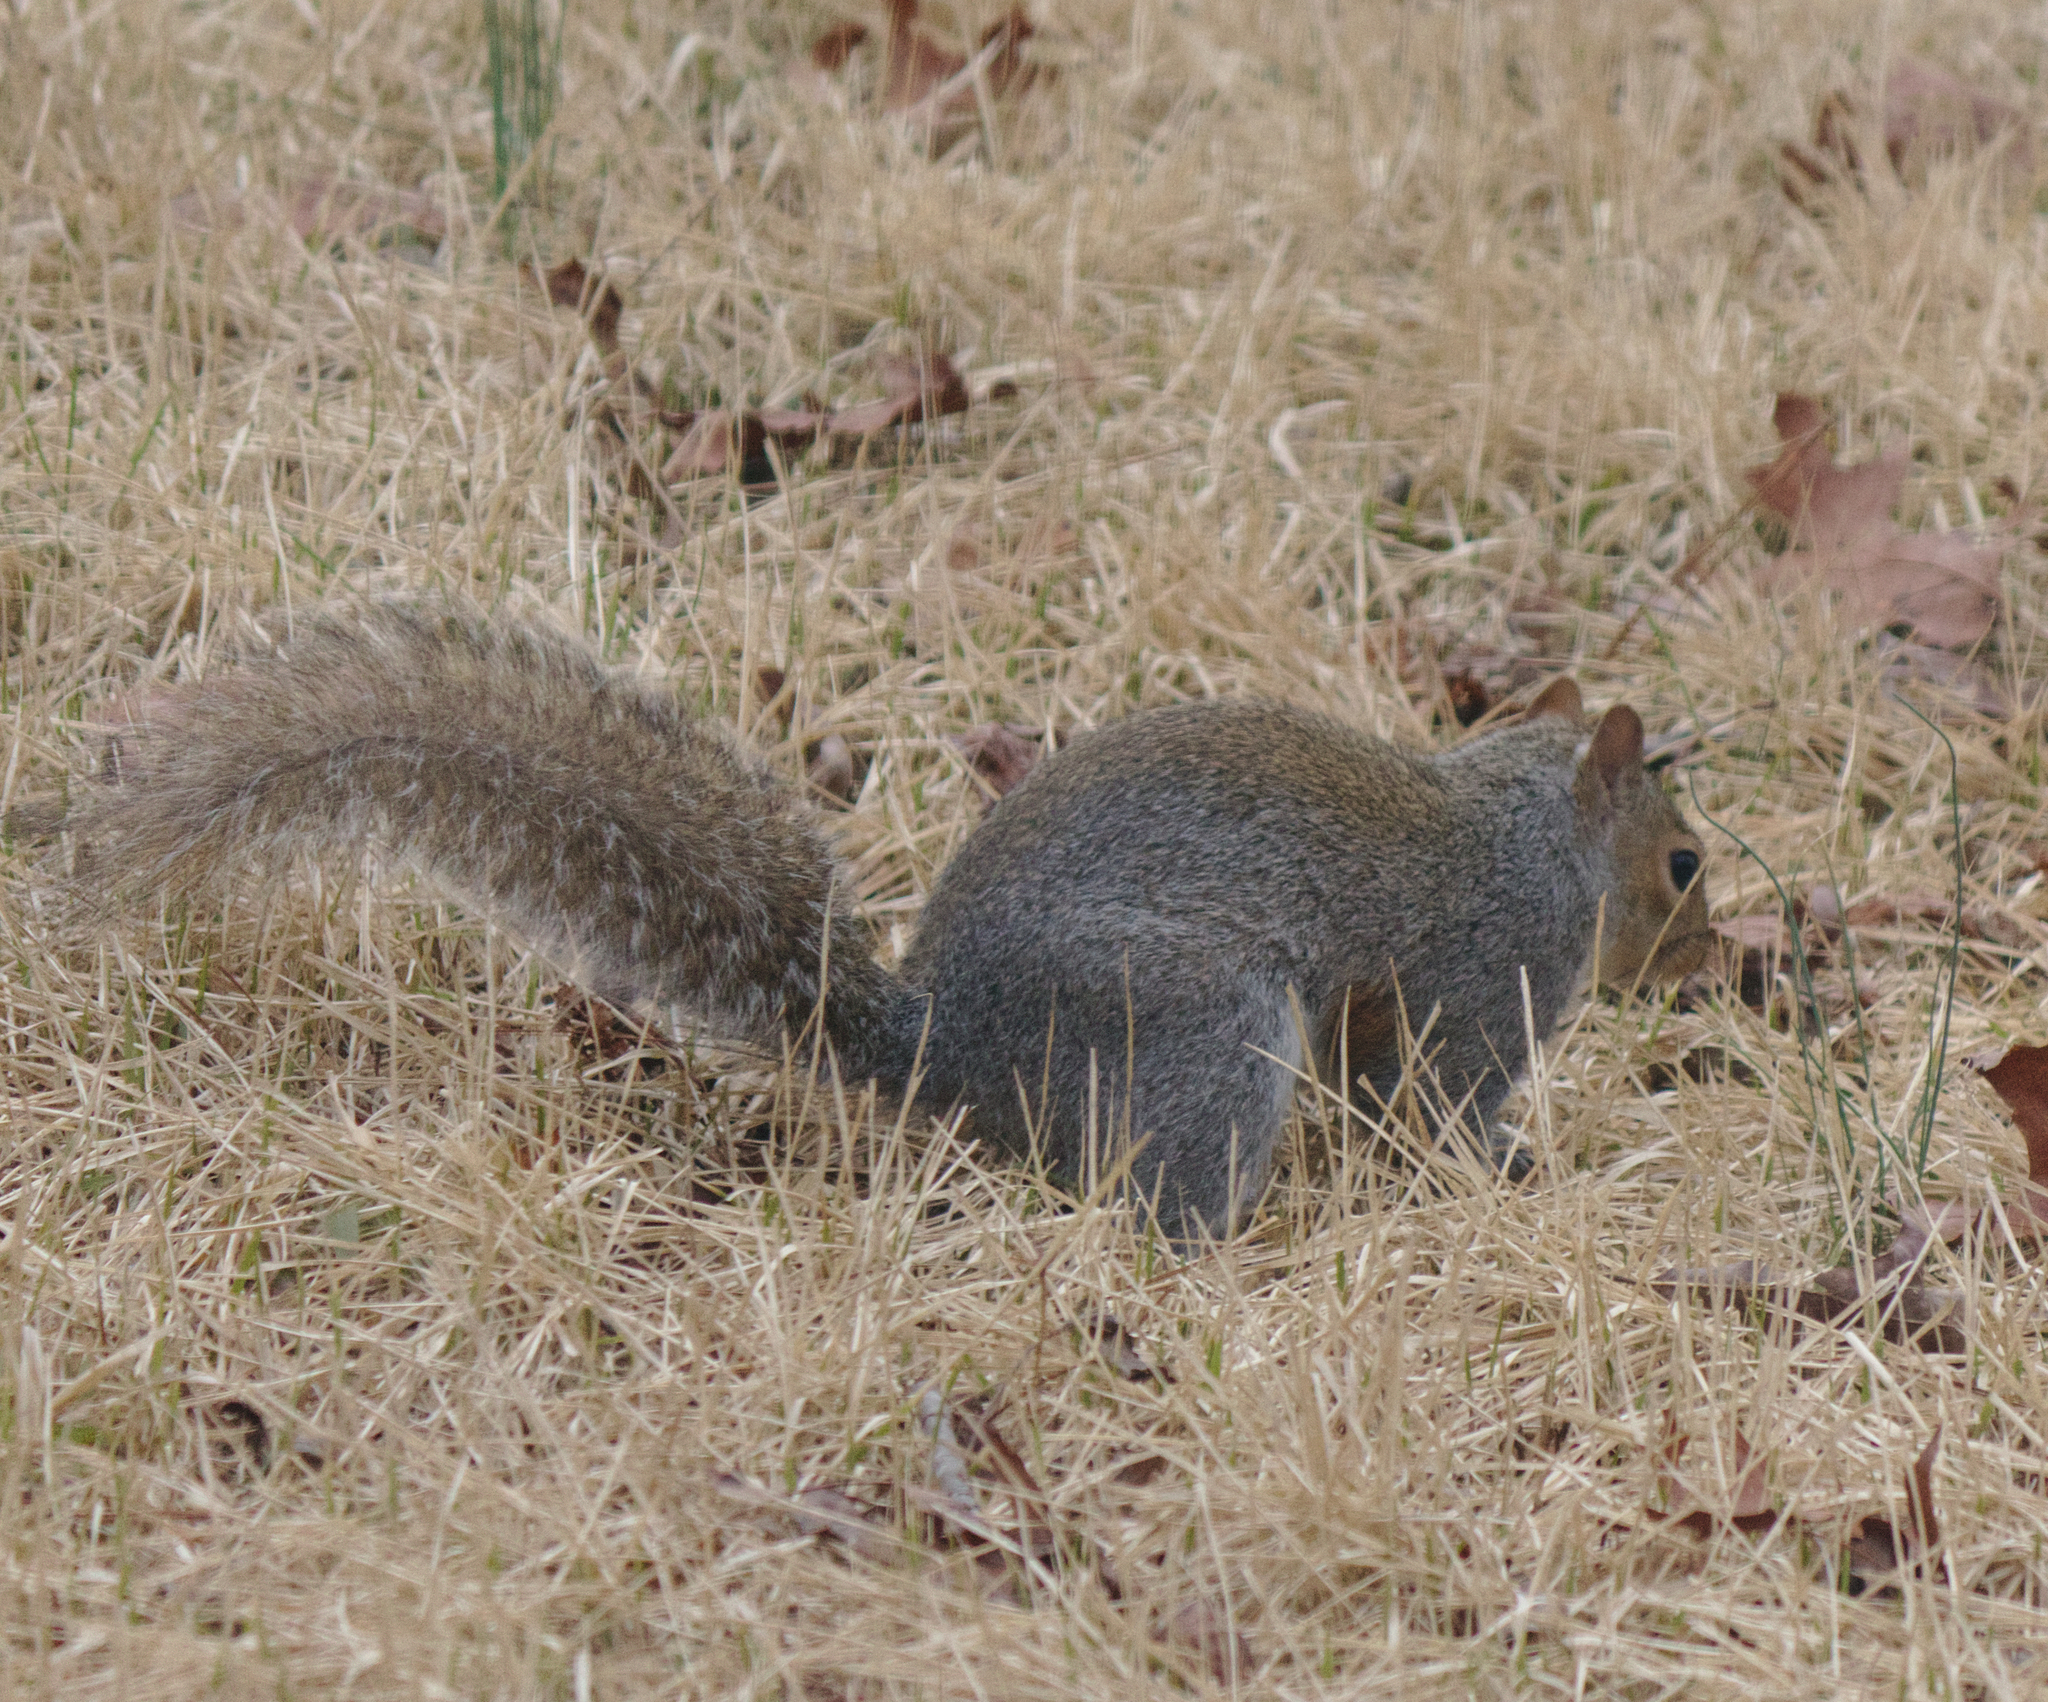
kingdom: Animalia
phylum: Chordata
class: Mammalia
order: Rodentia
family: Sciuridae
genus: Sciurus
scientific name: Sciurus carolinensis
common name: Eastern gray squirrel
